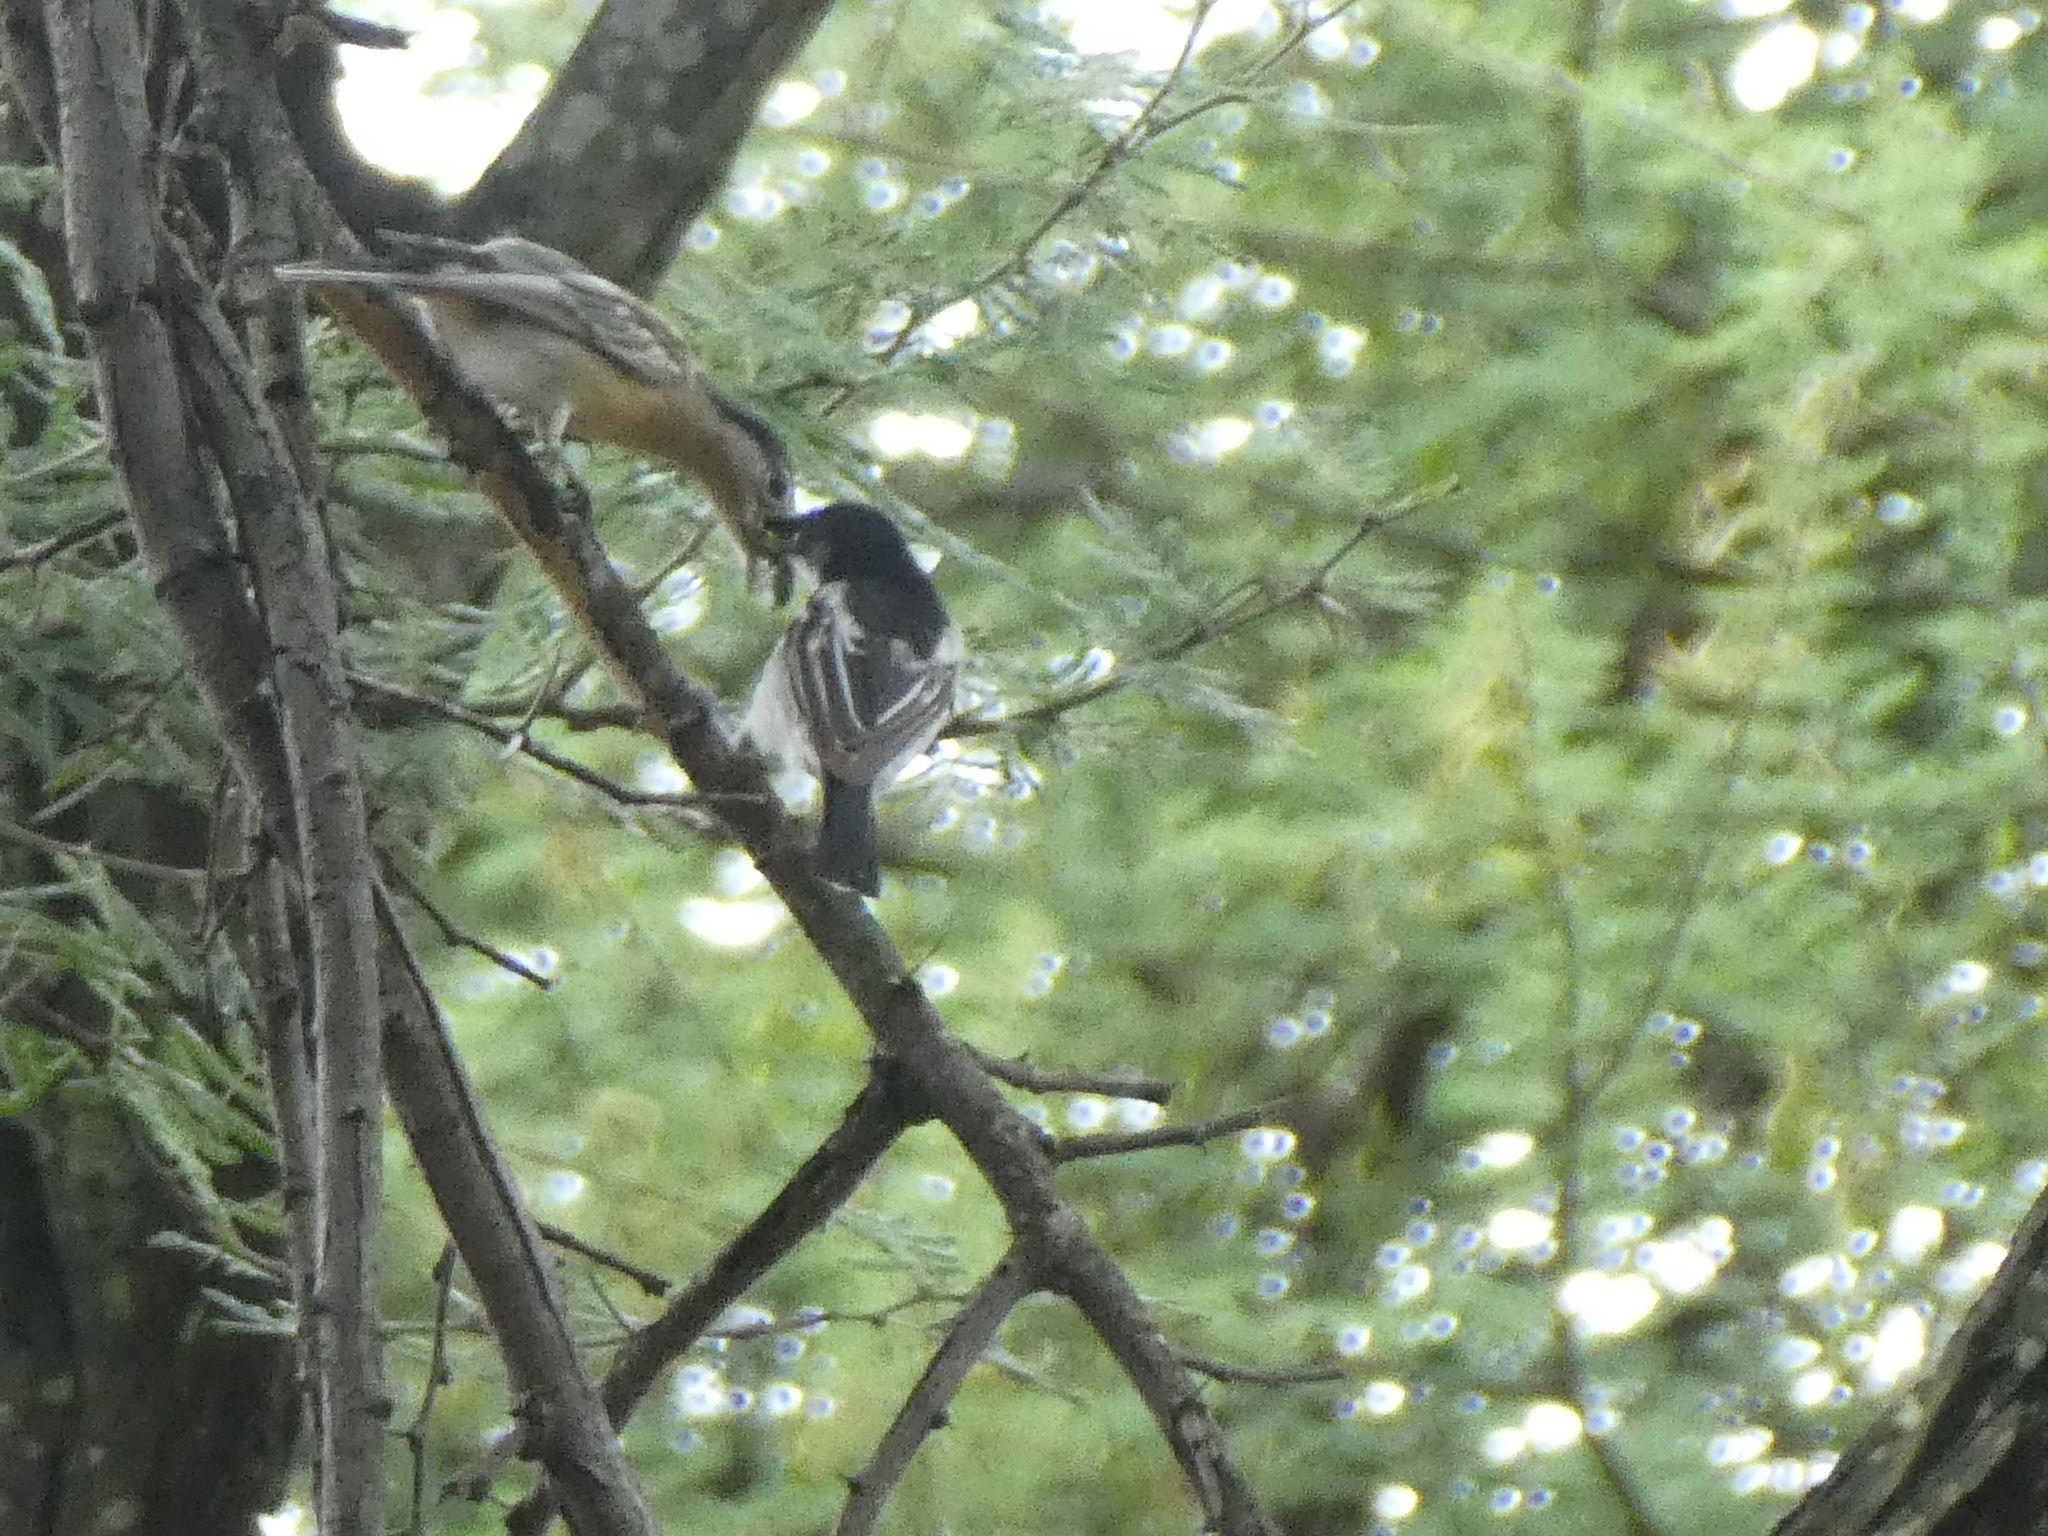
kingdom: Animalia
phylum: Chordata
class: Aves
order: Passeriformes
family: Malaconotidae
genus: Dryoscopus
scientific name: Dryoscopus cubla
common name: Black-backed puffback
